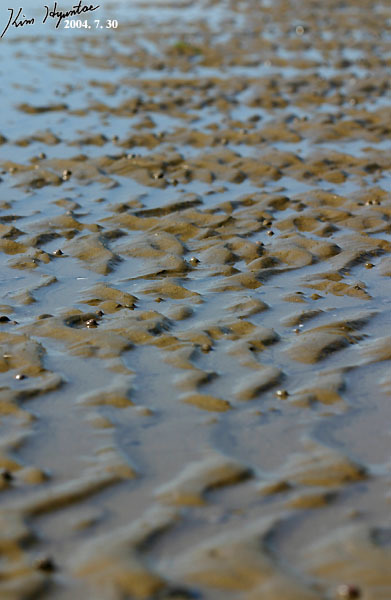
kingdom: Animalia
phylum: Mollusca
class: Gastropoda
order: Trochida
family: Trochidae
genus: Umbonium
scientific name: Umbonium thomasi
